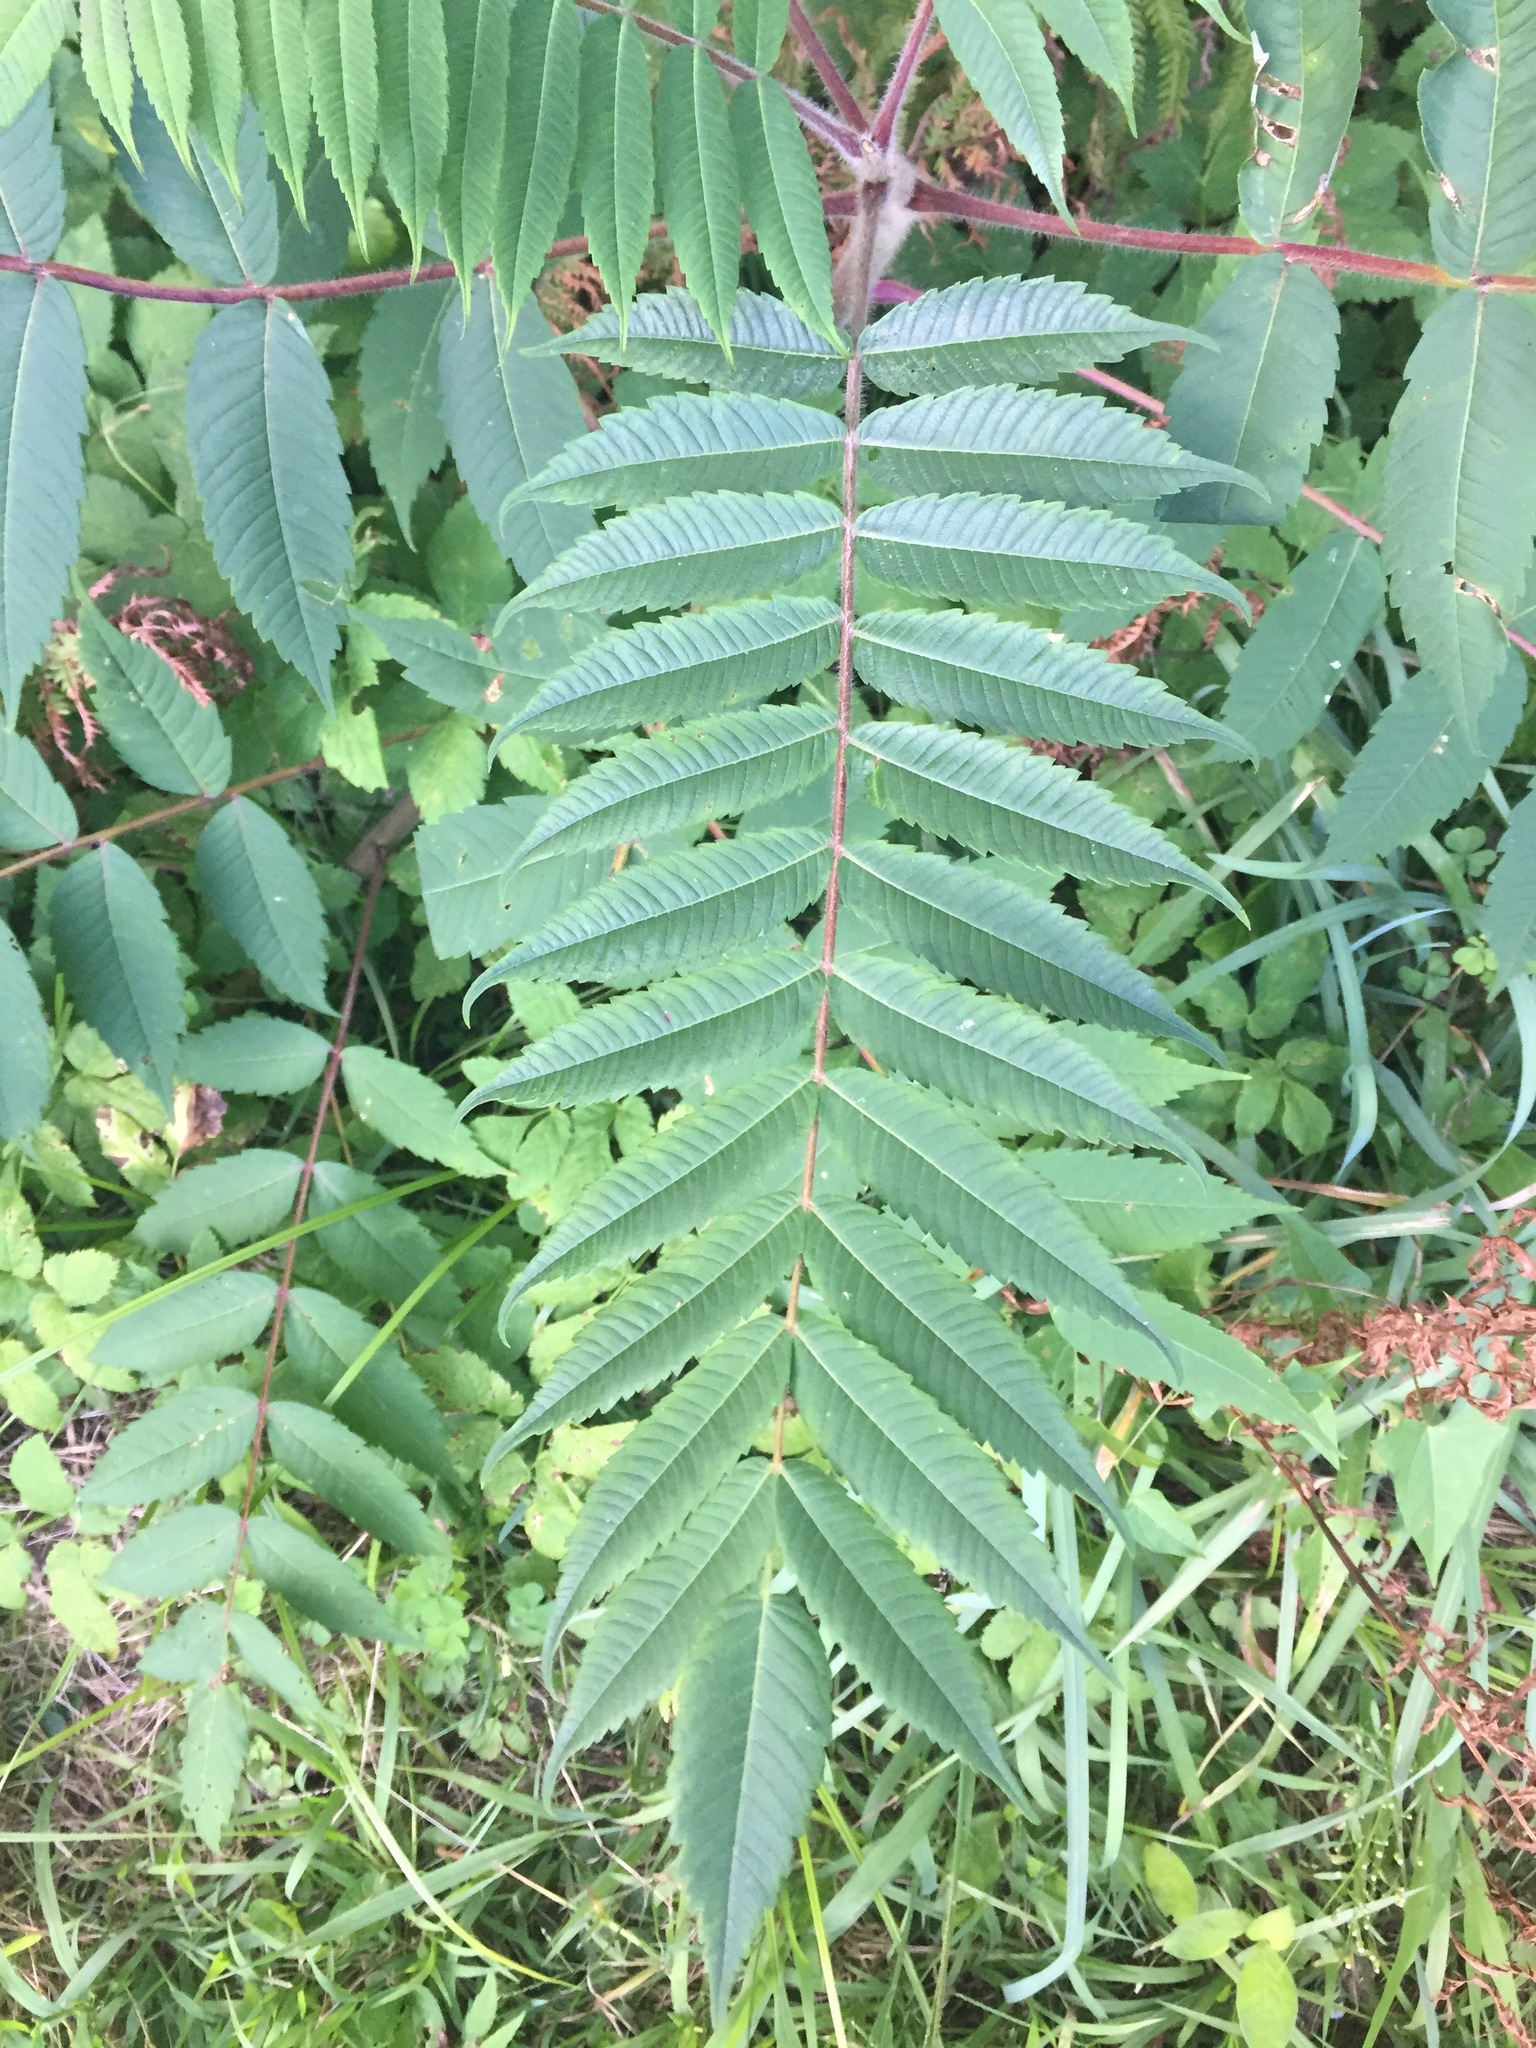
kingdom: Plantae
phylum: Tracheophyta
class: Magnoliopsida
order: Sapindales
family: Anacardiaceae
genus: Rhus
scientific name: Rhus typhina
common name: Staghorn sumac
